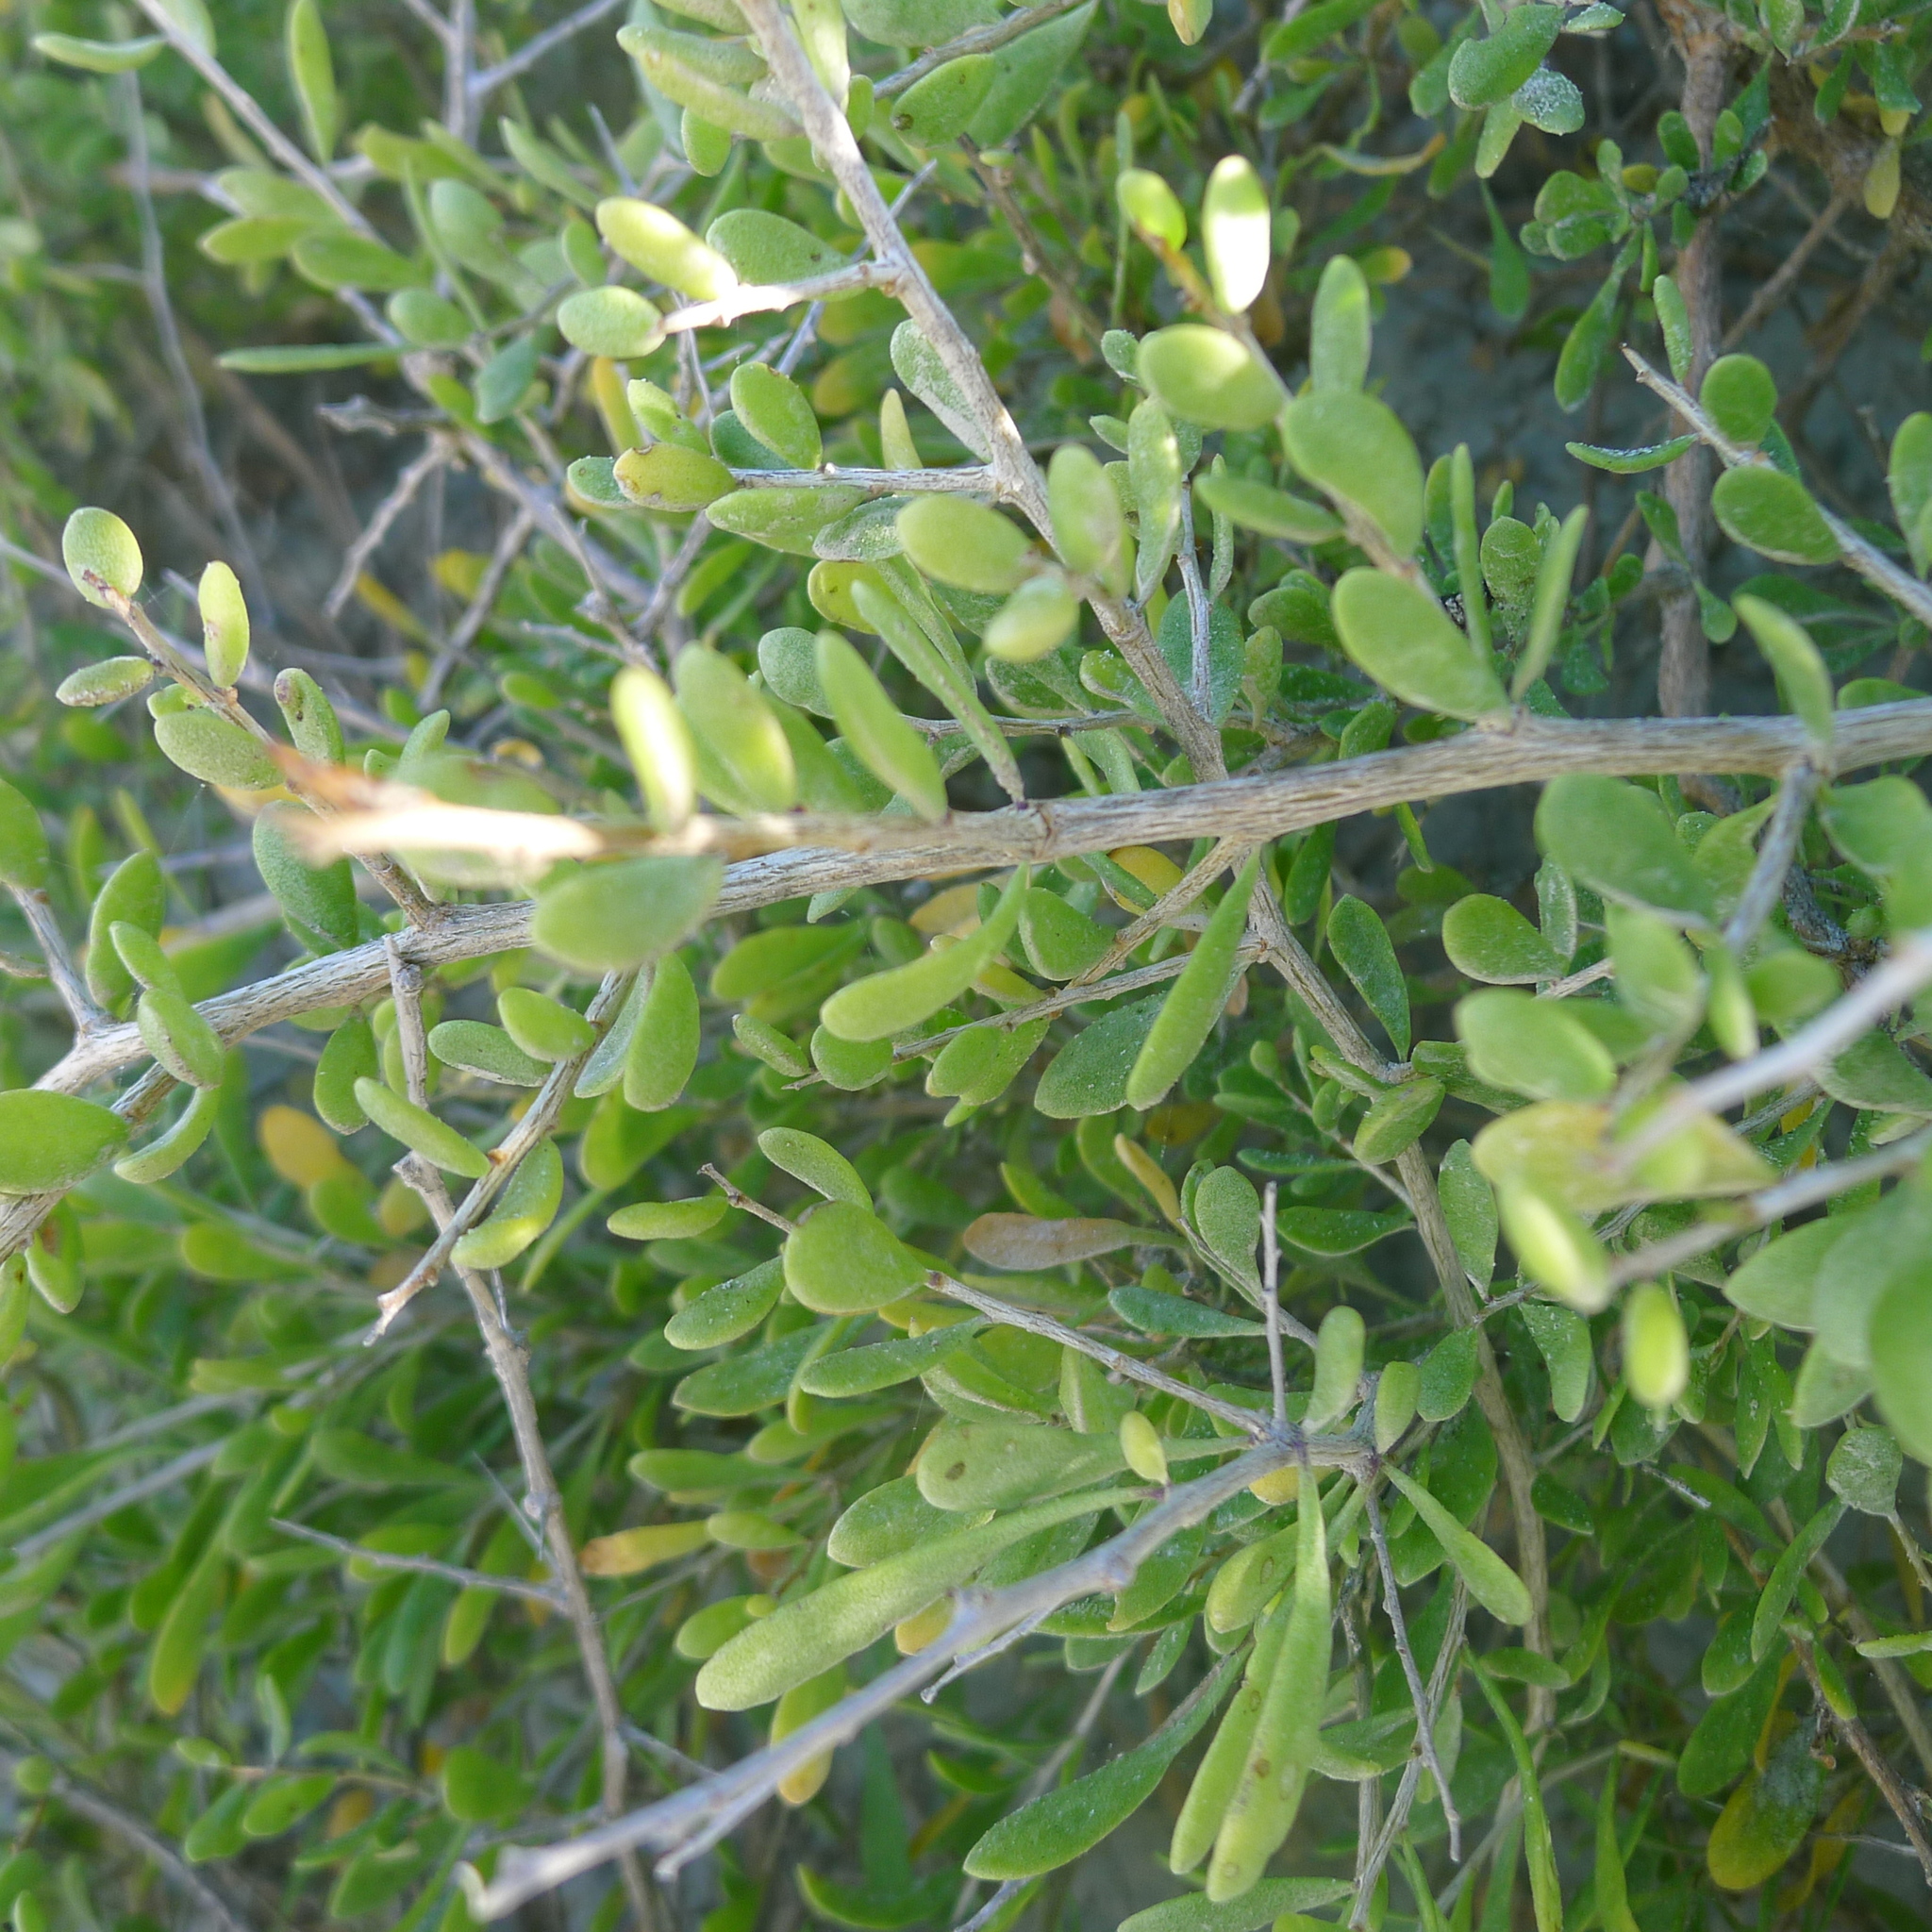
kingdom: Plantae
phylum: Tracheophyta
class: Magnoliopsida
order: Solanales
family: Solanaceae
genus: Lycium
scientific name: Lycium brevipes
